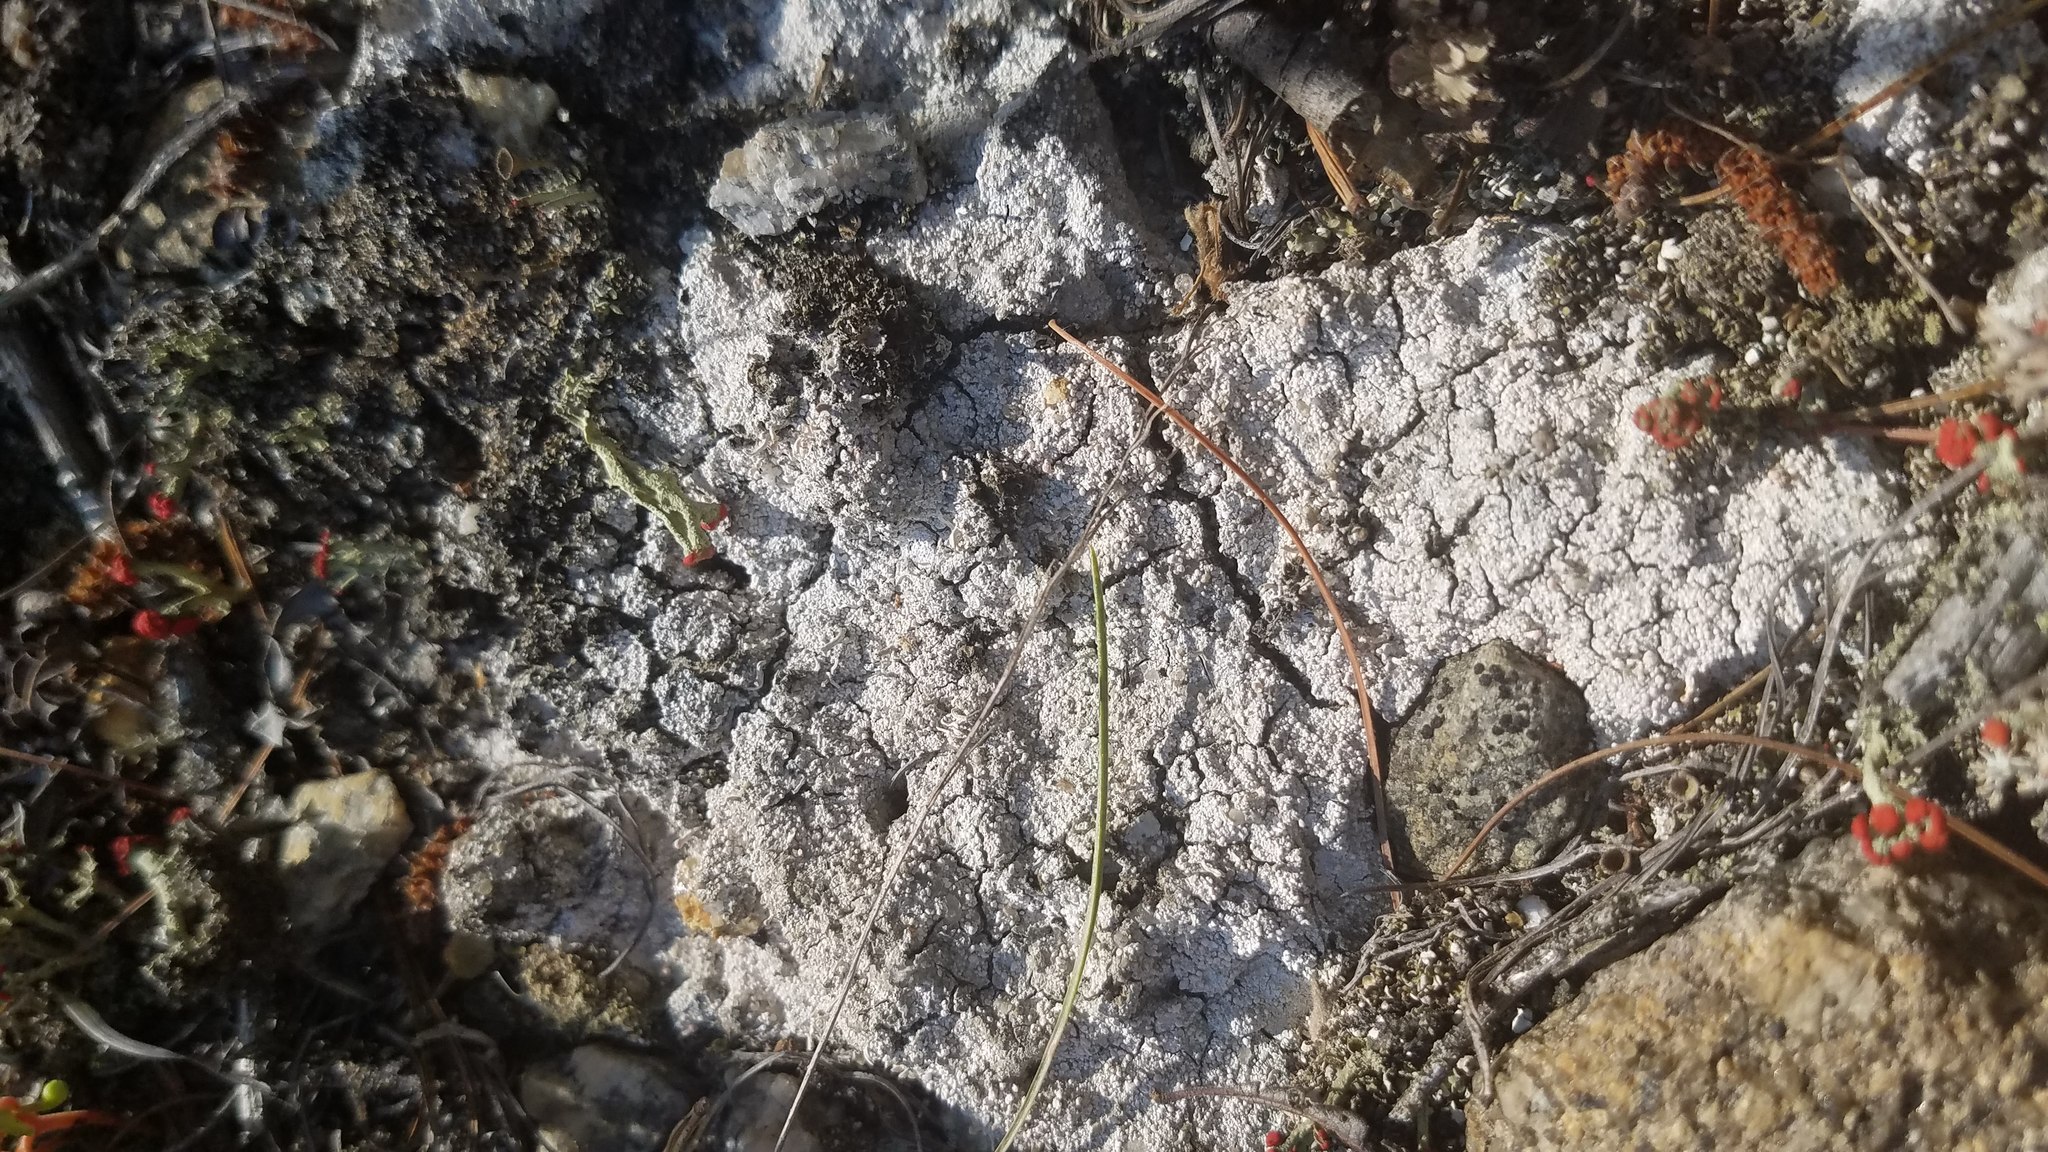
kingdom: Fungi
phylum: Ascomycota
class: Lecanoromycetes
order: Pertusariales
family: Icmadophilaceae
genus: Dibaeis
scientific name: Dibaeis baeomyces
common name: Pink earth lichen
